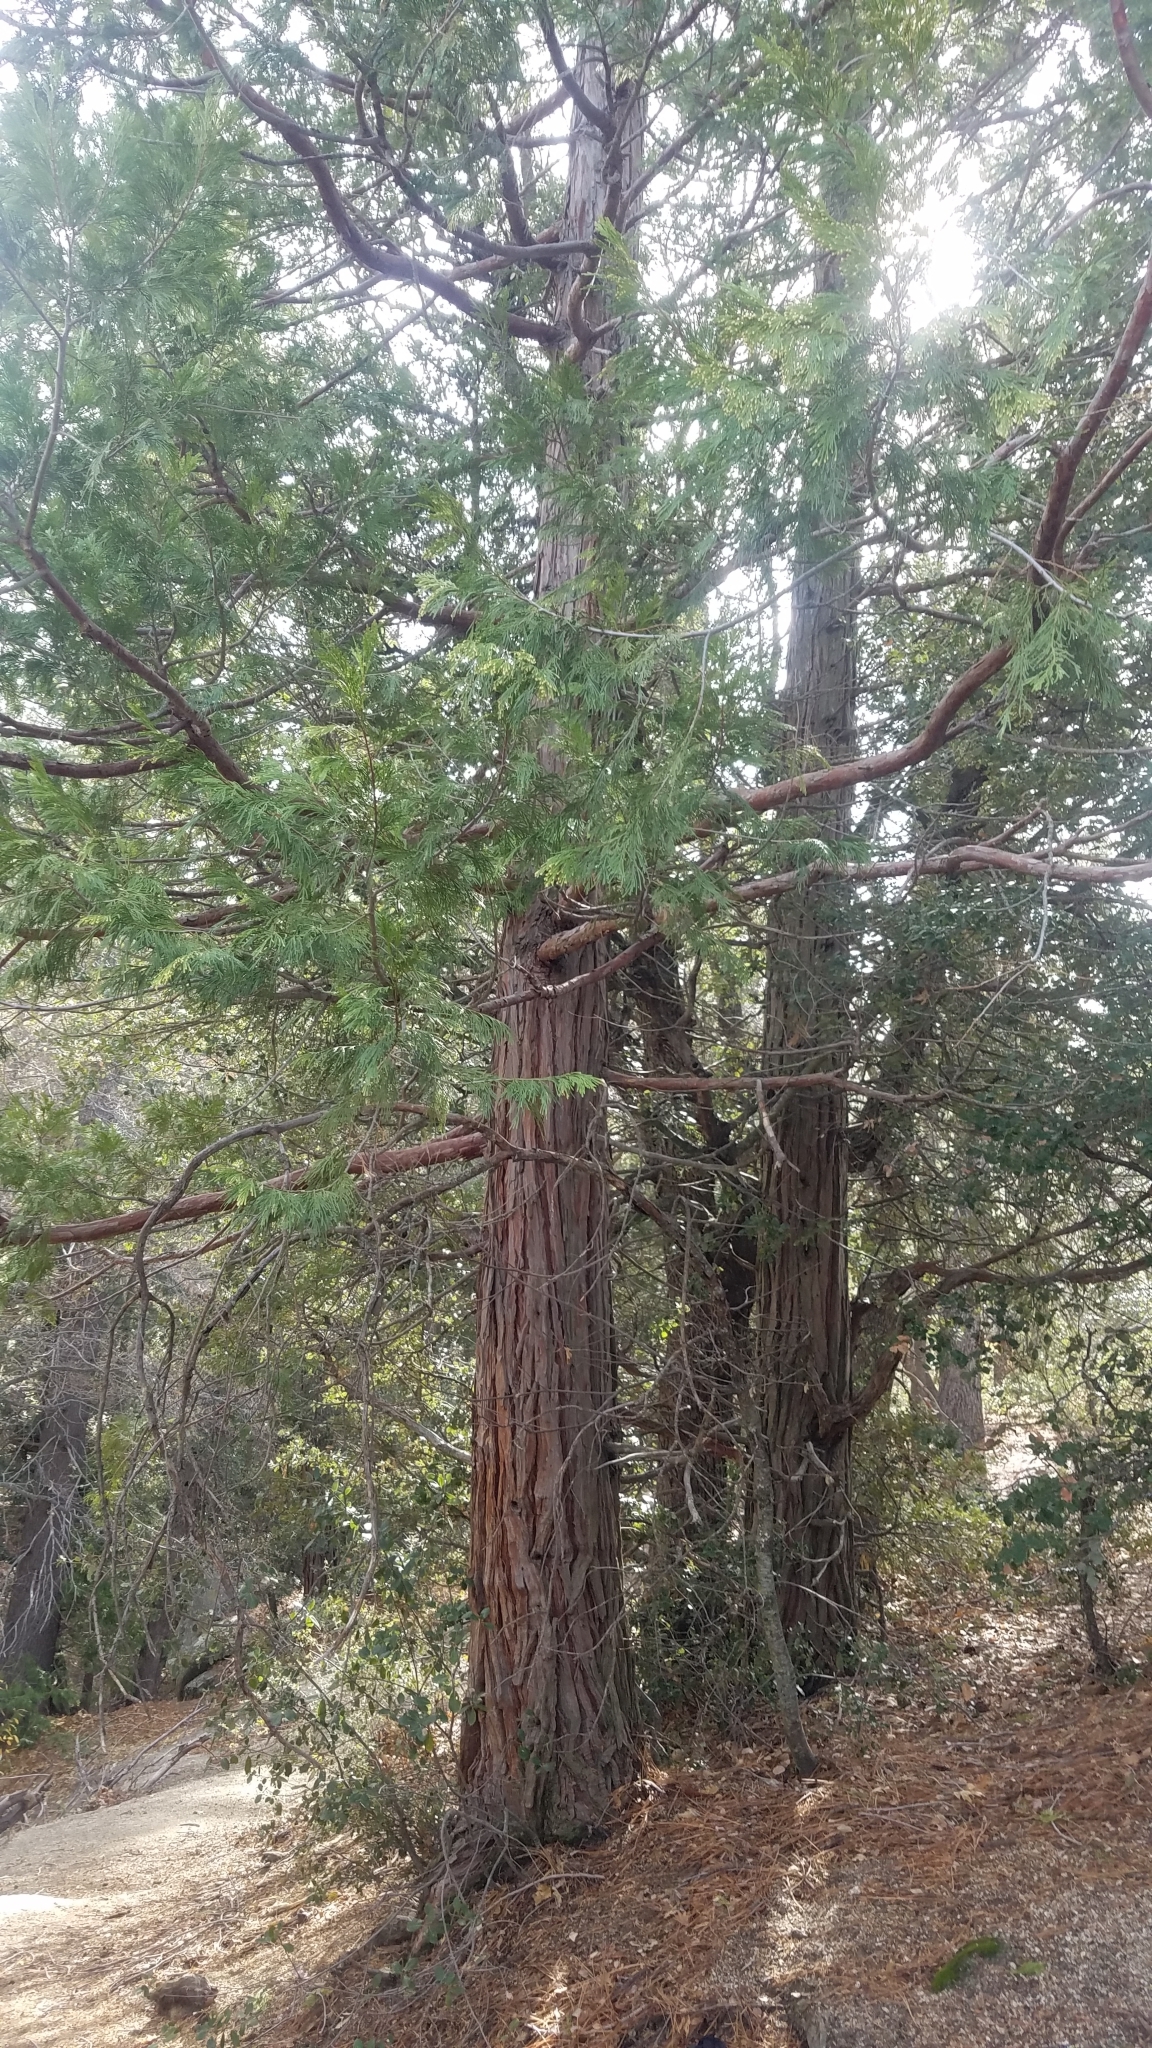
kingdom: Plantae
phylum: Tracheophyta
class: Pinopsida
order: Pinales
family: Cupressaceae
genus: Calocedrus
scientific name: Calocedrus decurrens
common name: Californian incense-cedar
